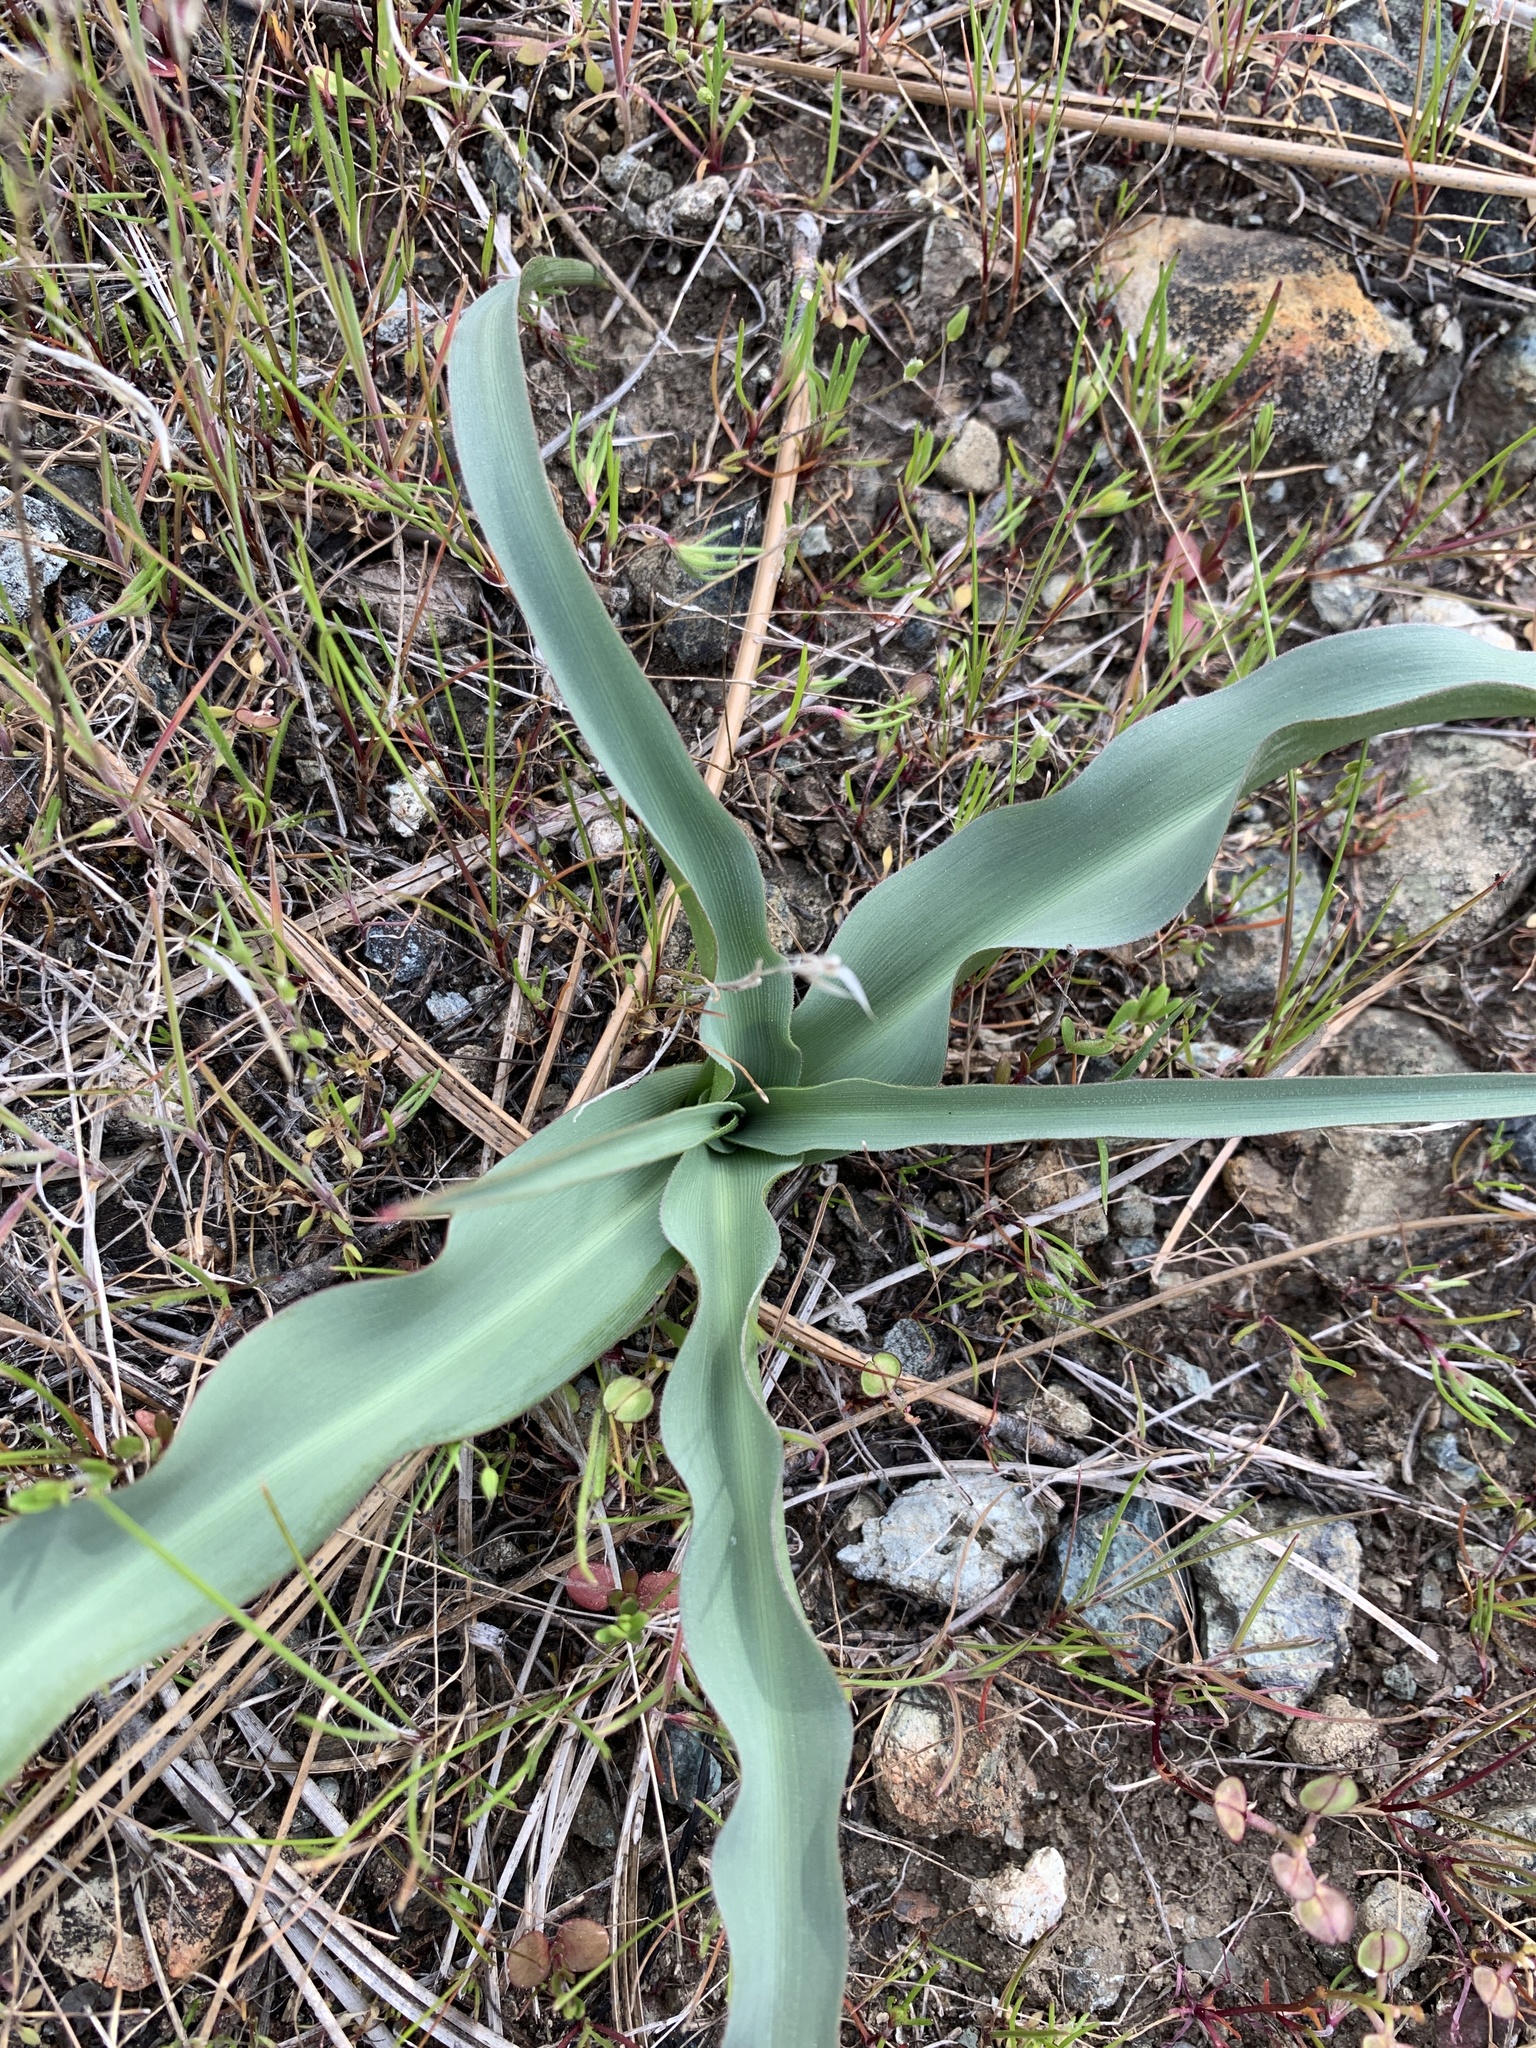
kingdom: Plantae
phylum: Tracheophyta
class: Liliopsida
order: Asparagales
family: Asparagaceae
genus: Chlorogalum
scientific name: Chlorogalum pomeridianum
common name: Amole
